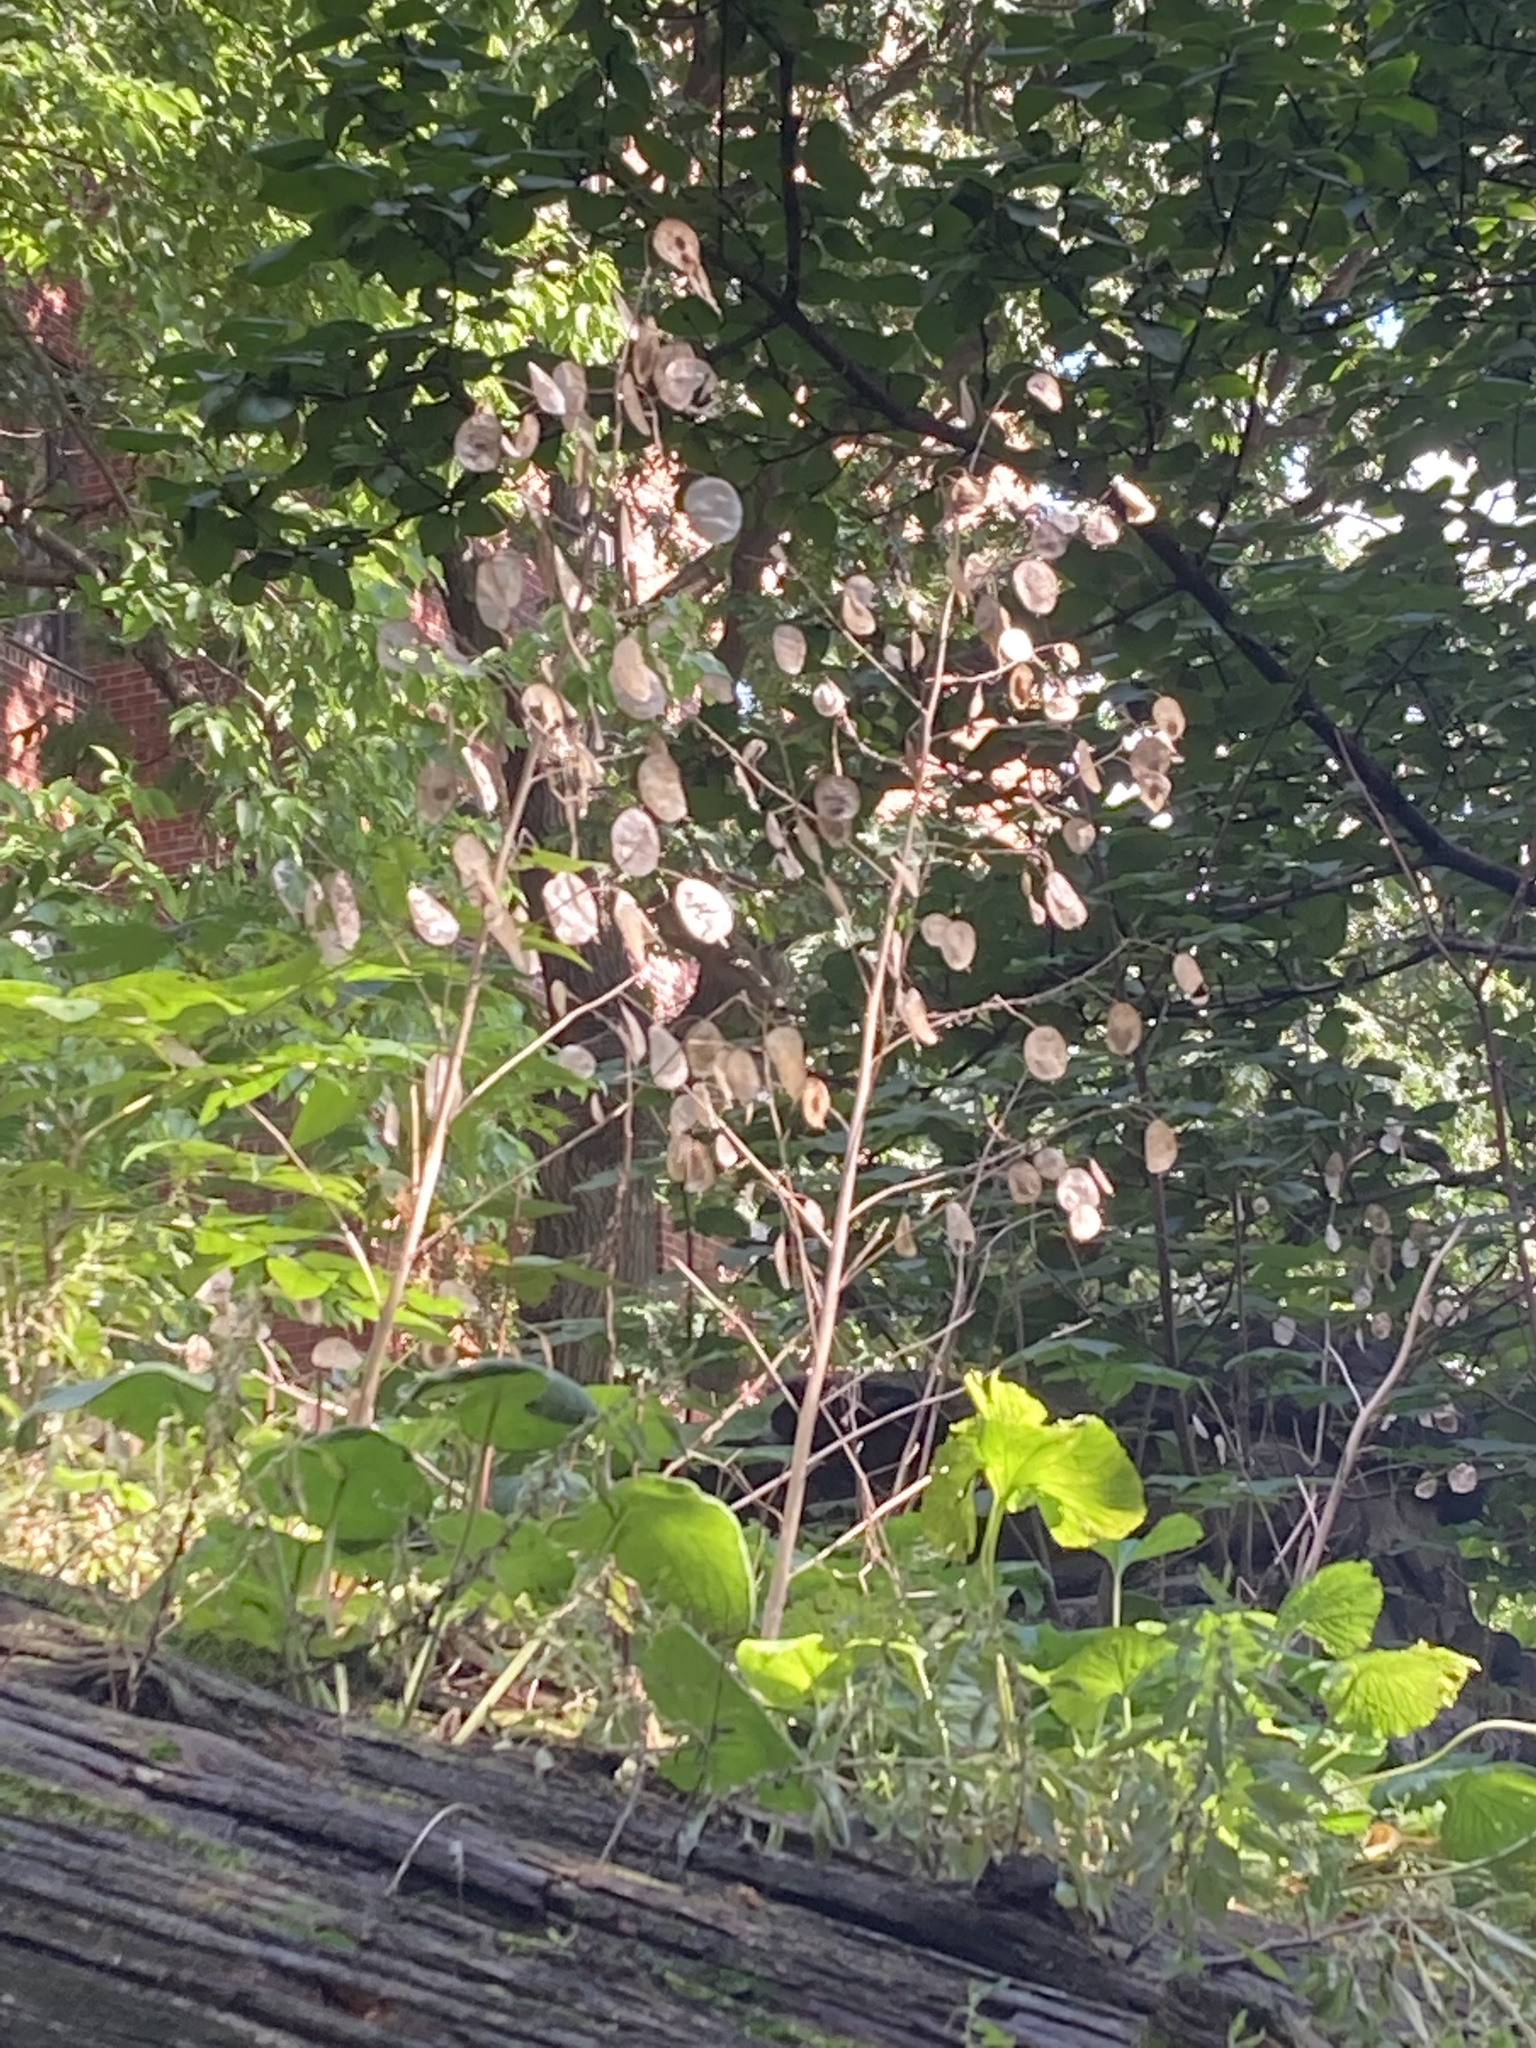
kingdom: Plantae
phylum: Tracheophyta
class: Magnoliopsida
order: Brassicales
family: Brassicaceae
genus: Lunaria
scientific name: Lunaria annua
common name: Honesty
